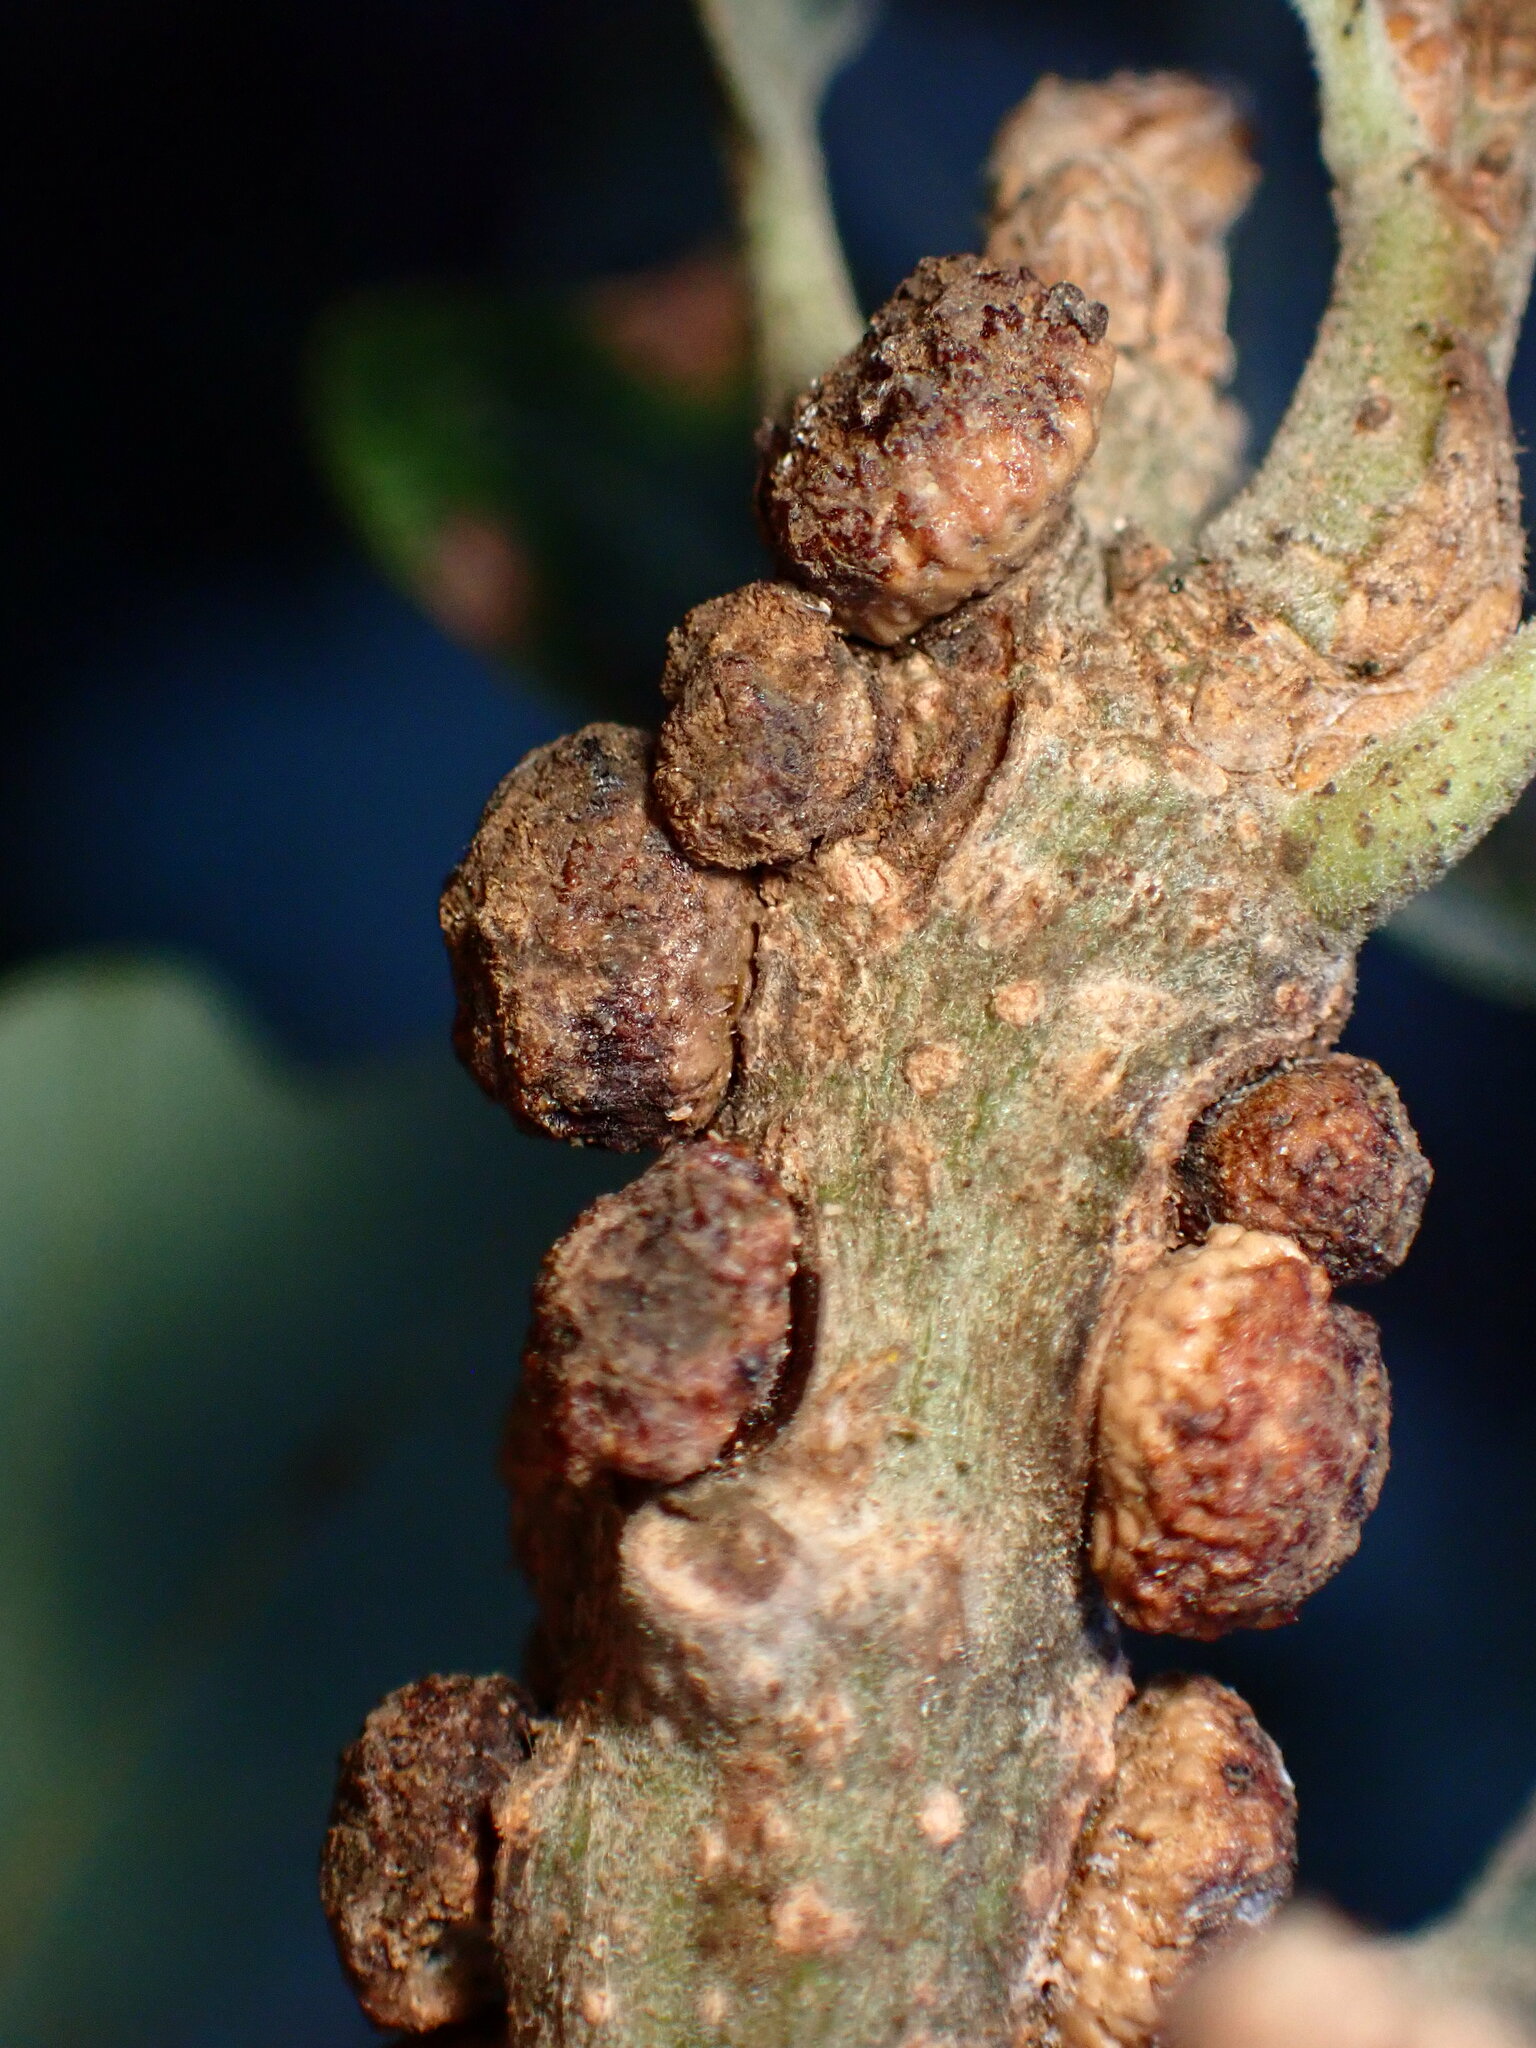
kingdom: Animalia
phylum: Arthropoda
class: Insecta
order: Hymenoptera
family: Cynipidae
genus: Disholcaspis
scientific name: Disholcaspis
